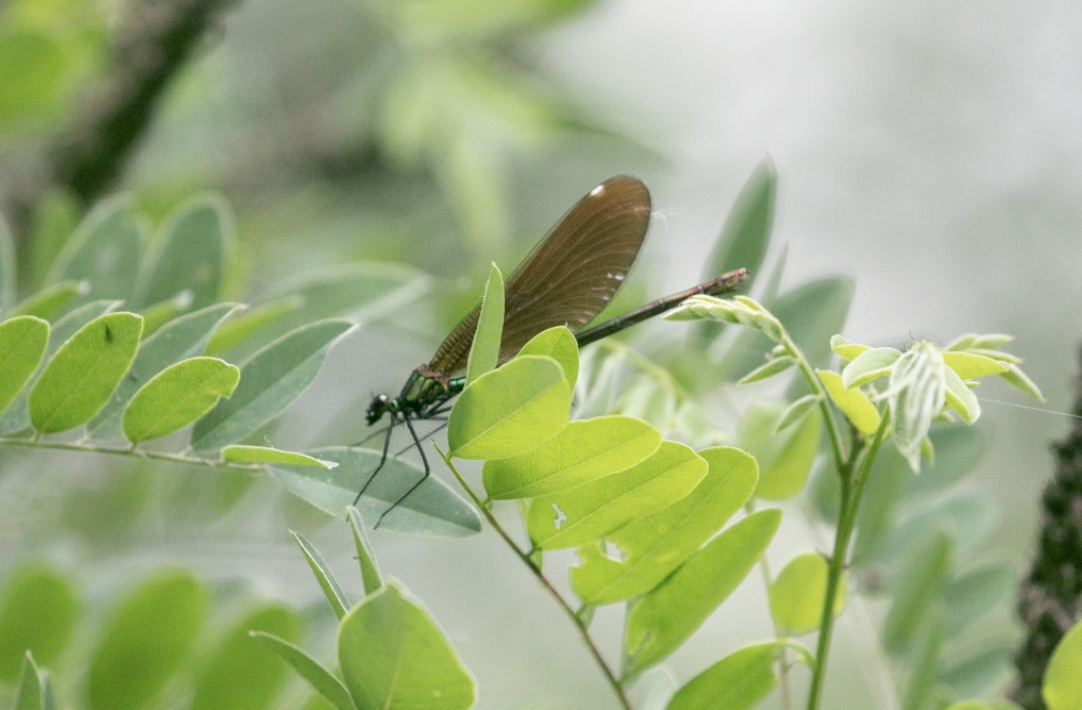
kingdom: Animalia
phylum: Arthropoda
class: Insecta
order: Odonata
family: Calopterygidae
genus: Calopteryx
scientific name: Calopteryx virgo
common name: Beautiful demoiselle
